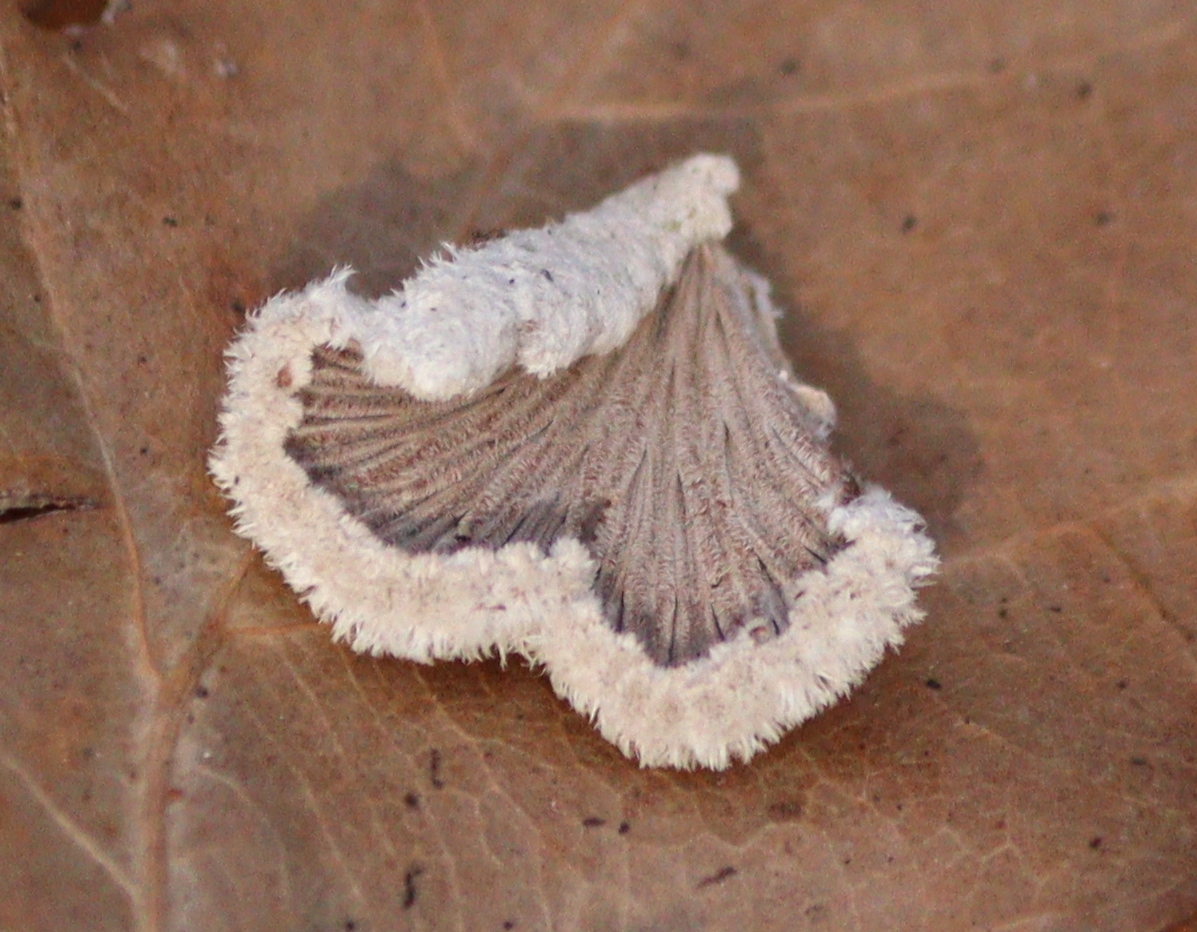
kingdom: Fungi
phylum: Basidiomycota
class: Agaricomycetes
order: Agaricales
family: Schizophyllaceae
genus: Schizophyllum
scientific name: Schizophyllum commune
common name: Common porecrust
